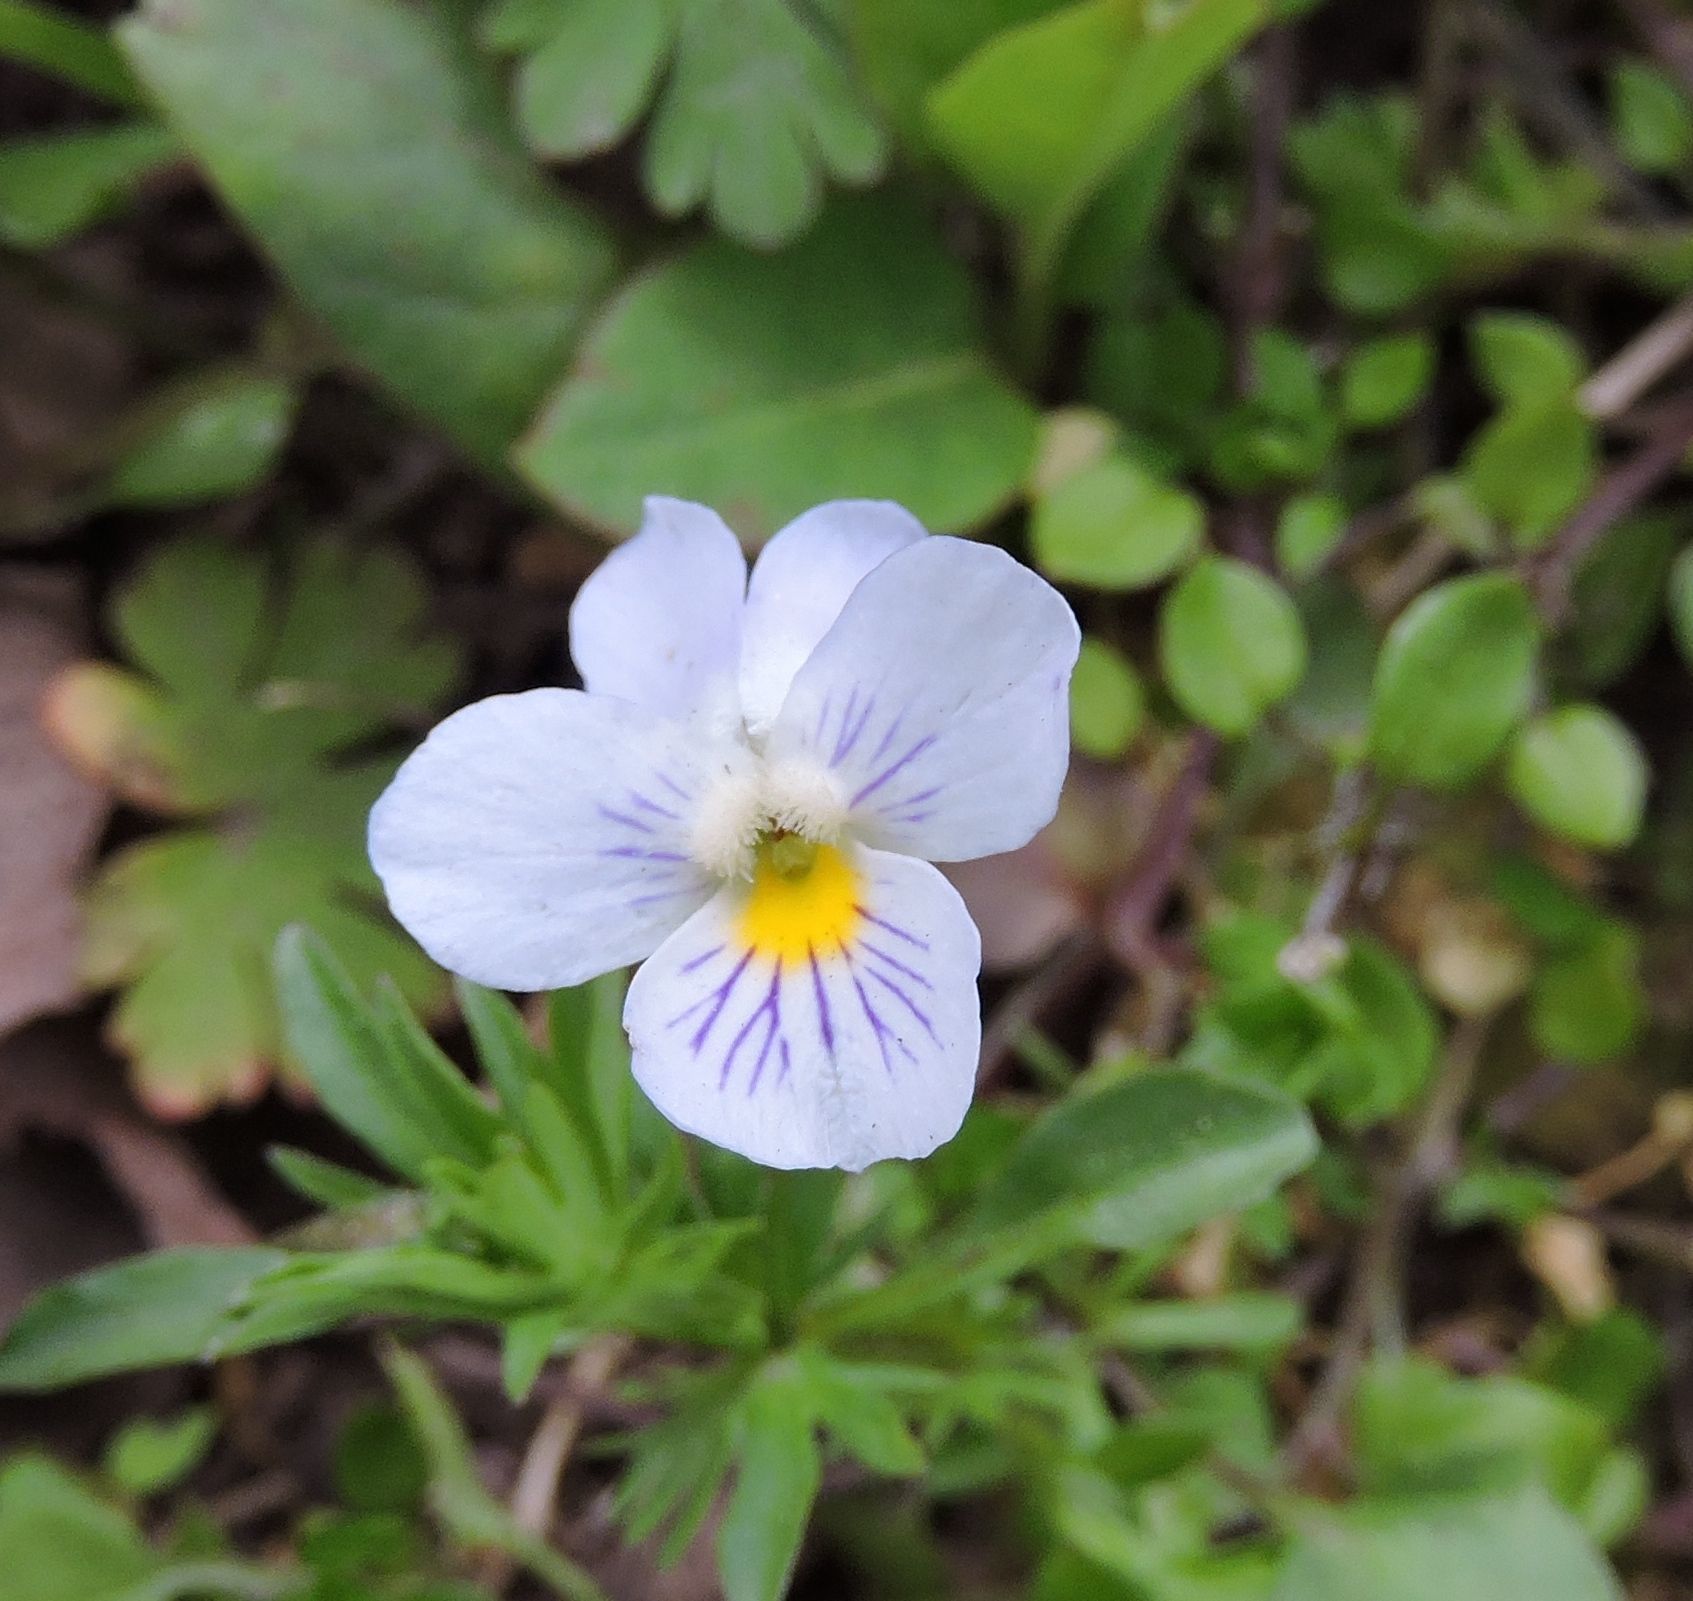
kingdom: Plantae
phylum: Tracheophyta
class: Magnoliopsida
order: Malpighiales
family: Violaceae
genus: Viola
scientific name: Viola rafinesquei
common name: American field pansy
